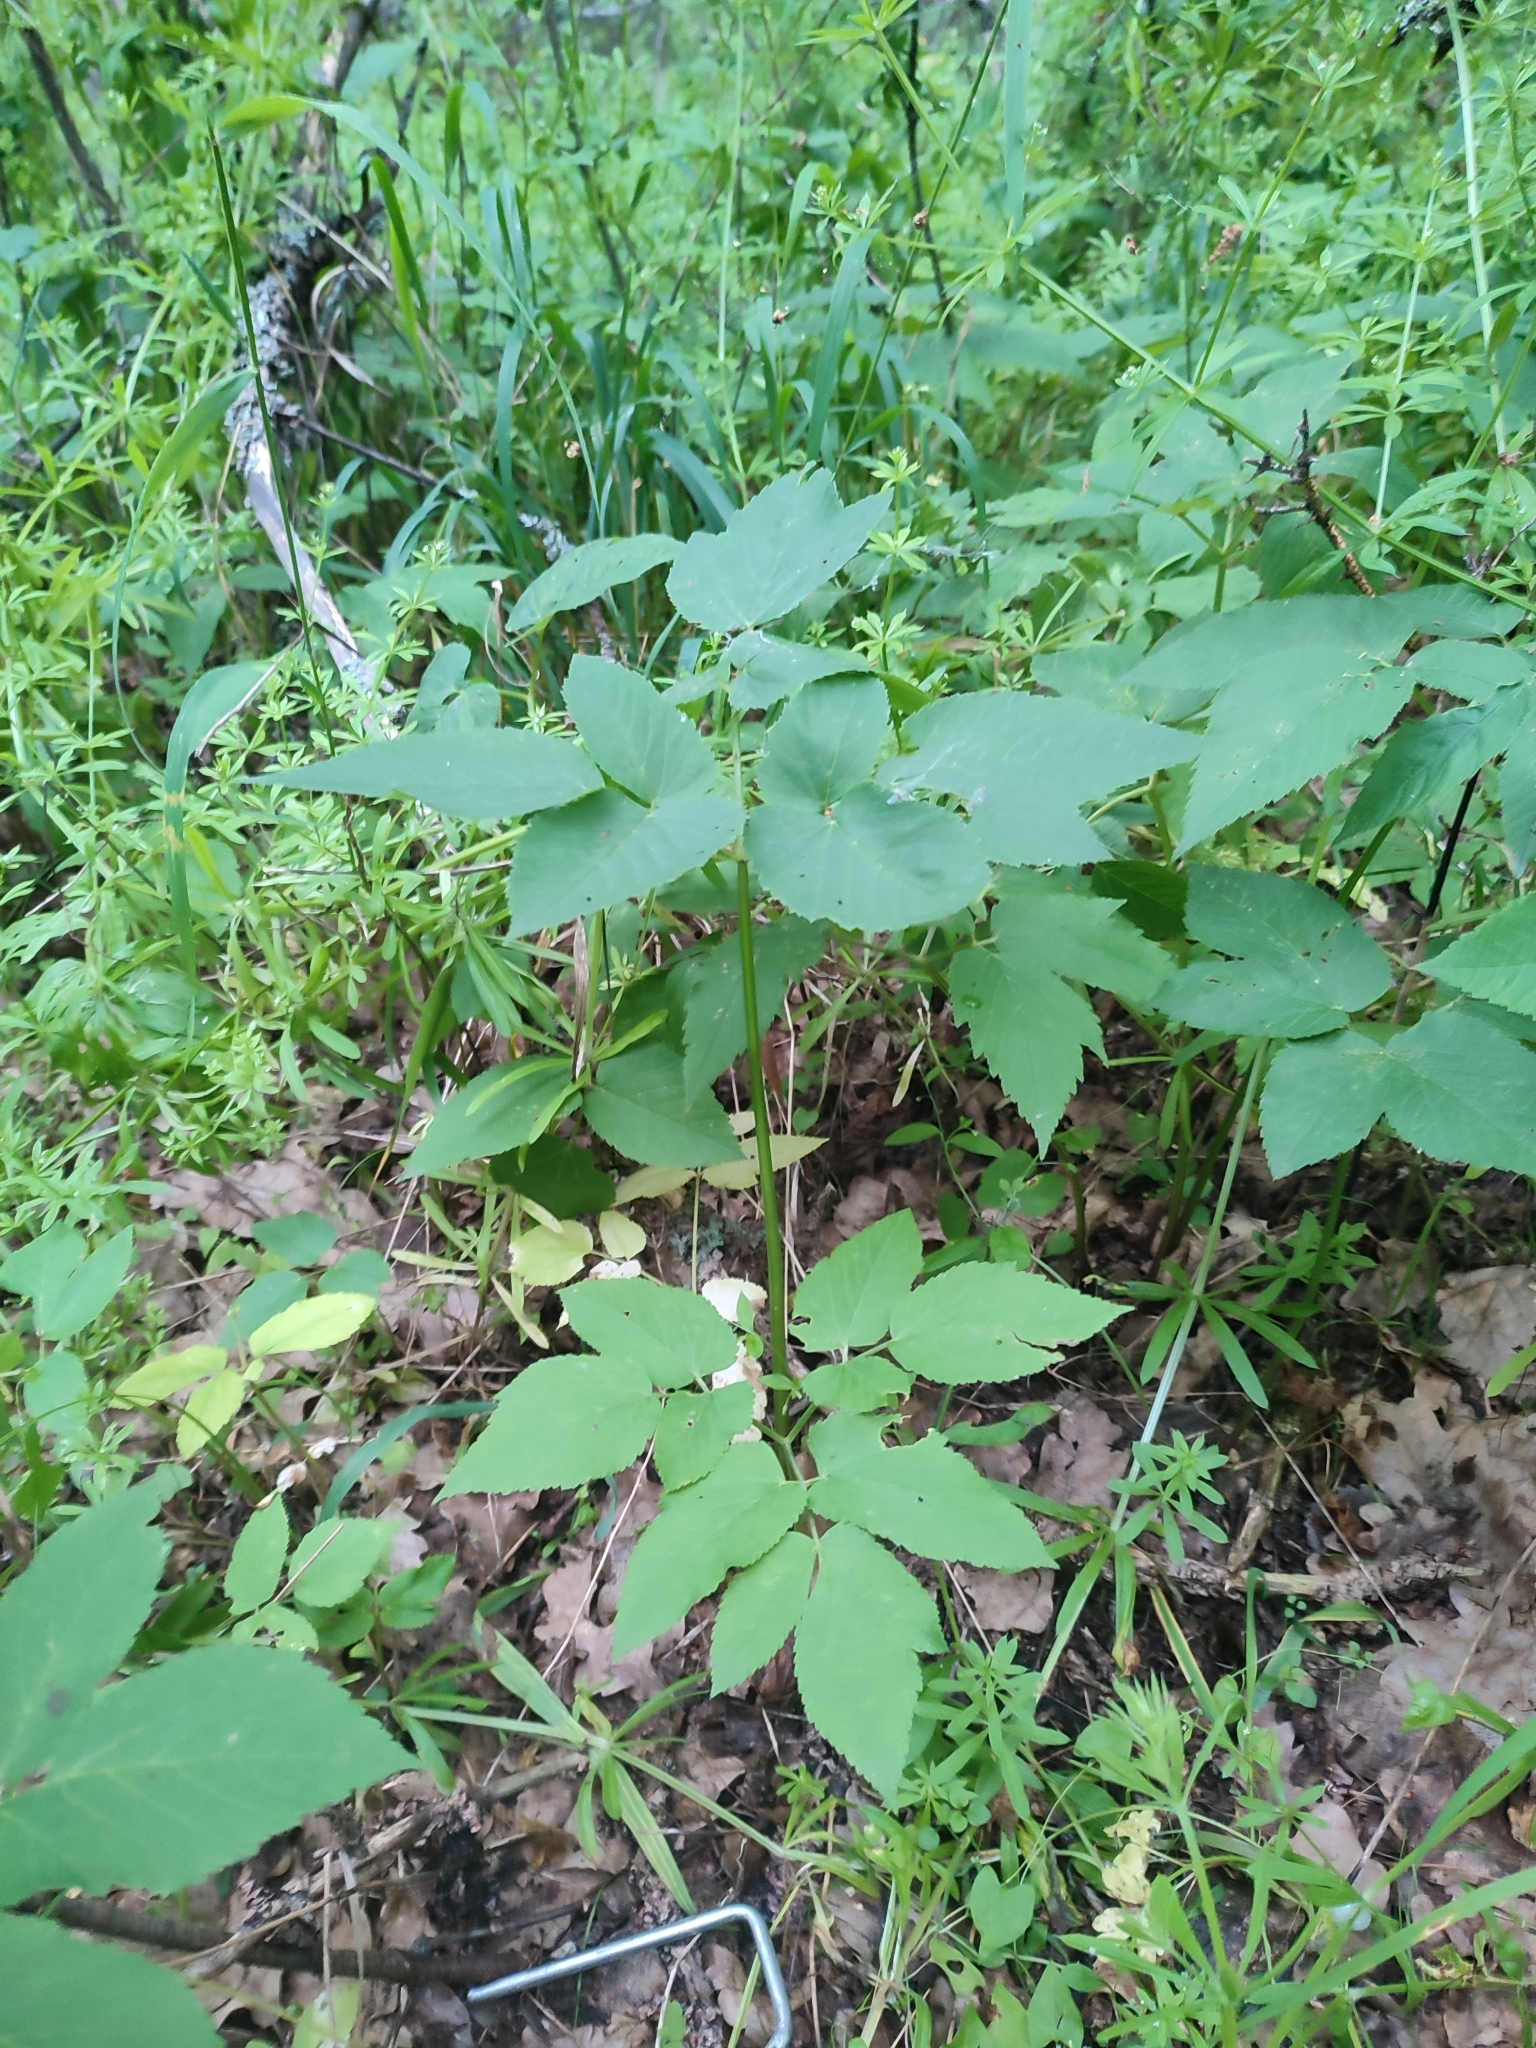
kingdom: Plantae
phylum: Tracheophyta
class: Magnoliopsida
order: Apiales
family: Apiaceae
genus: Aegopodium
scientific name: Aegopodium podagraria
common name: Ground-elder
